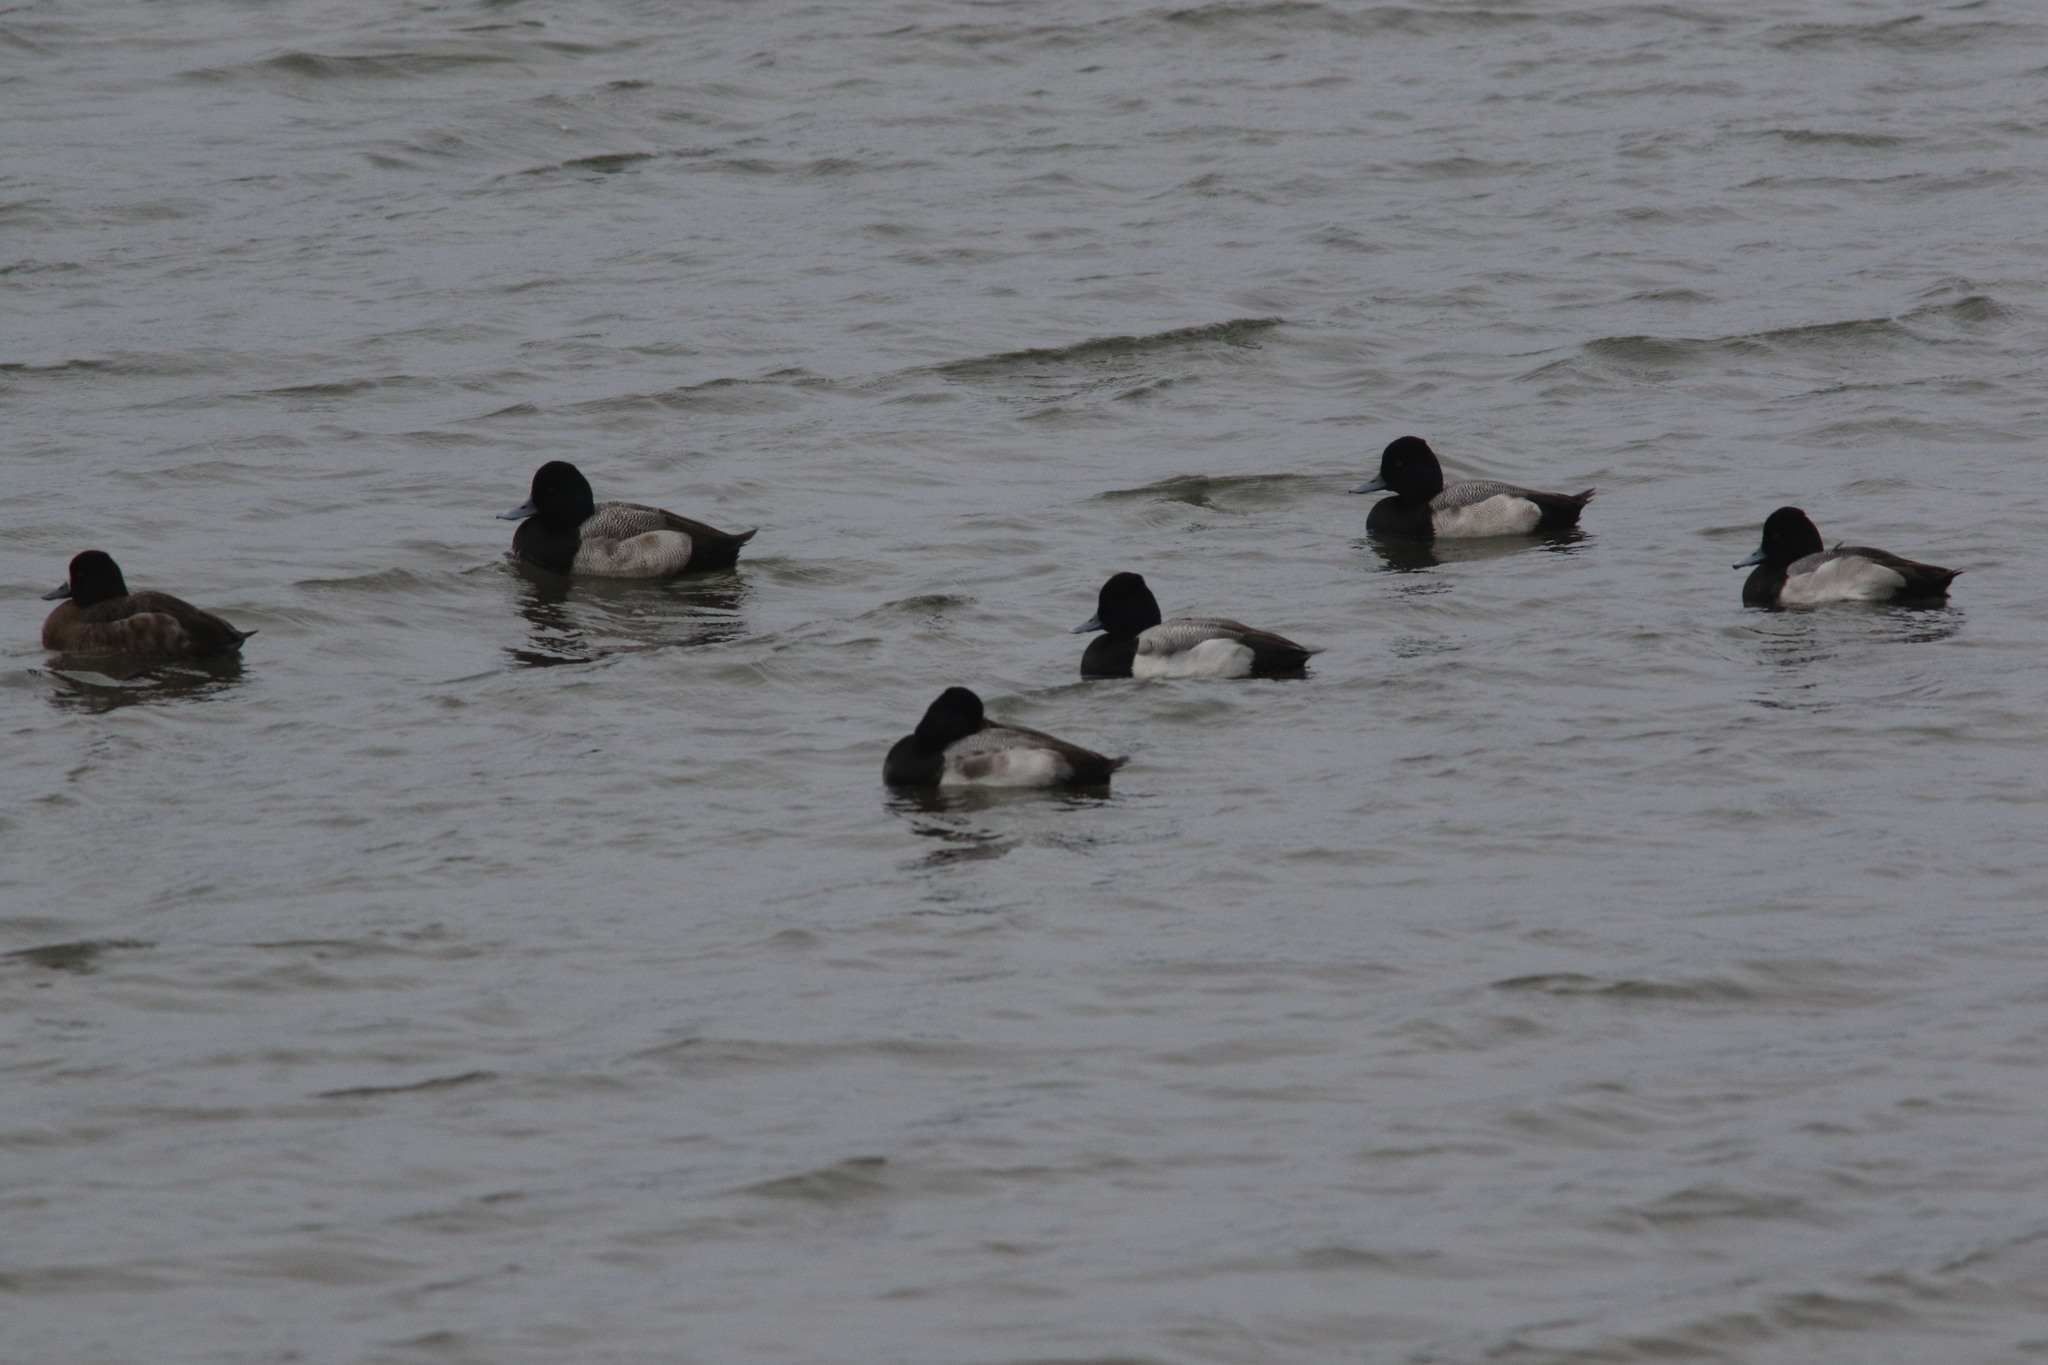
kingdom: Animalia
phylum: Chordata
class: Aves
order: Anseriformes
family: Anatidae
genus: Aythya
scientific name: Aythya affinis
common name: Lesser scaup
